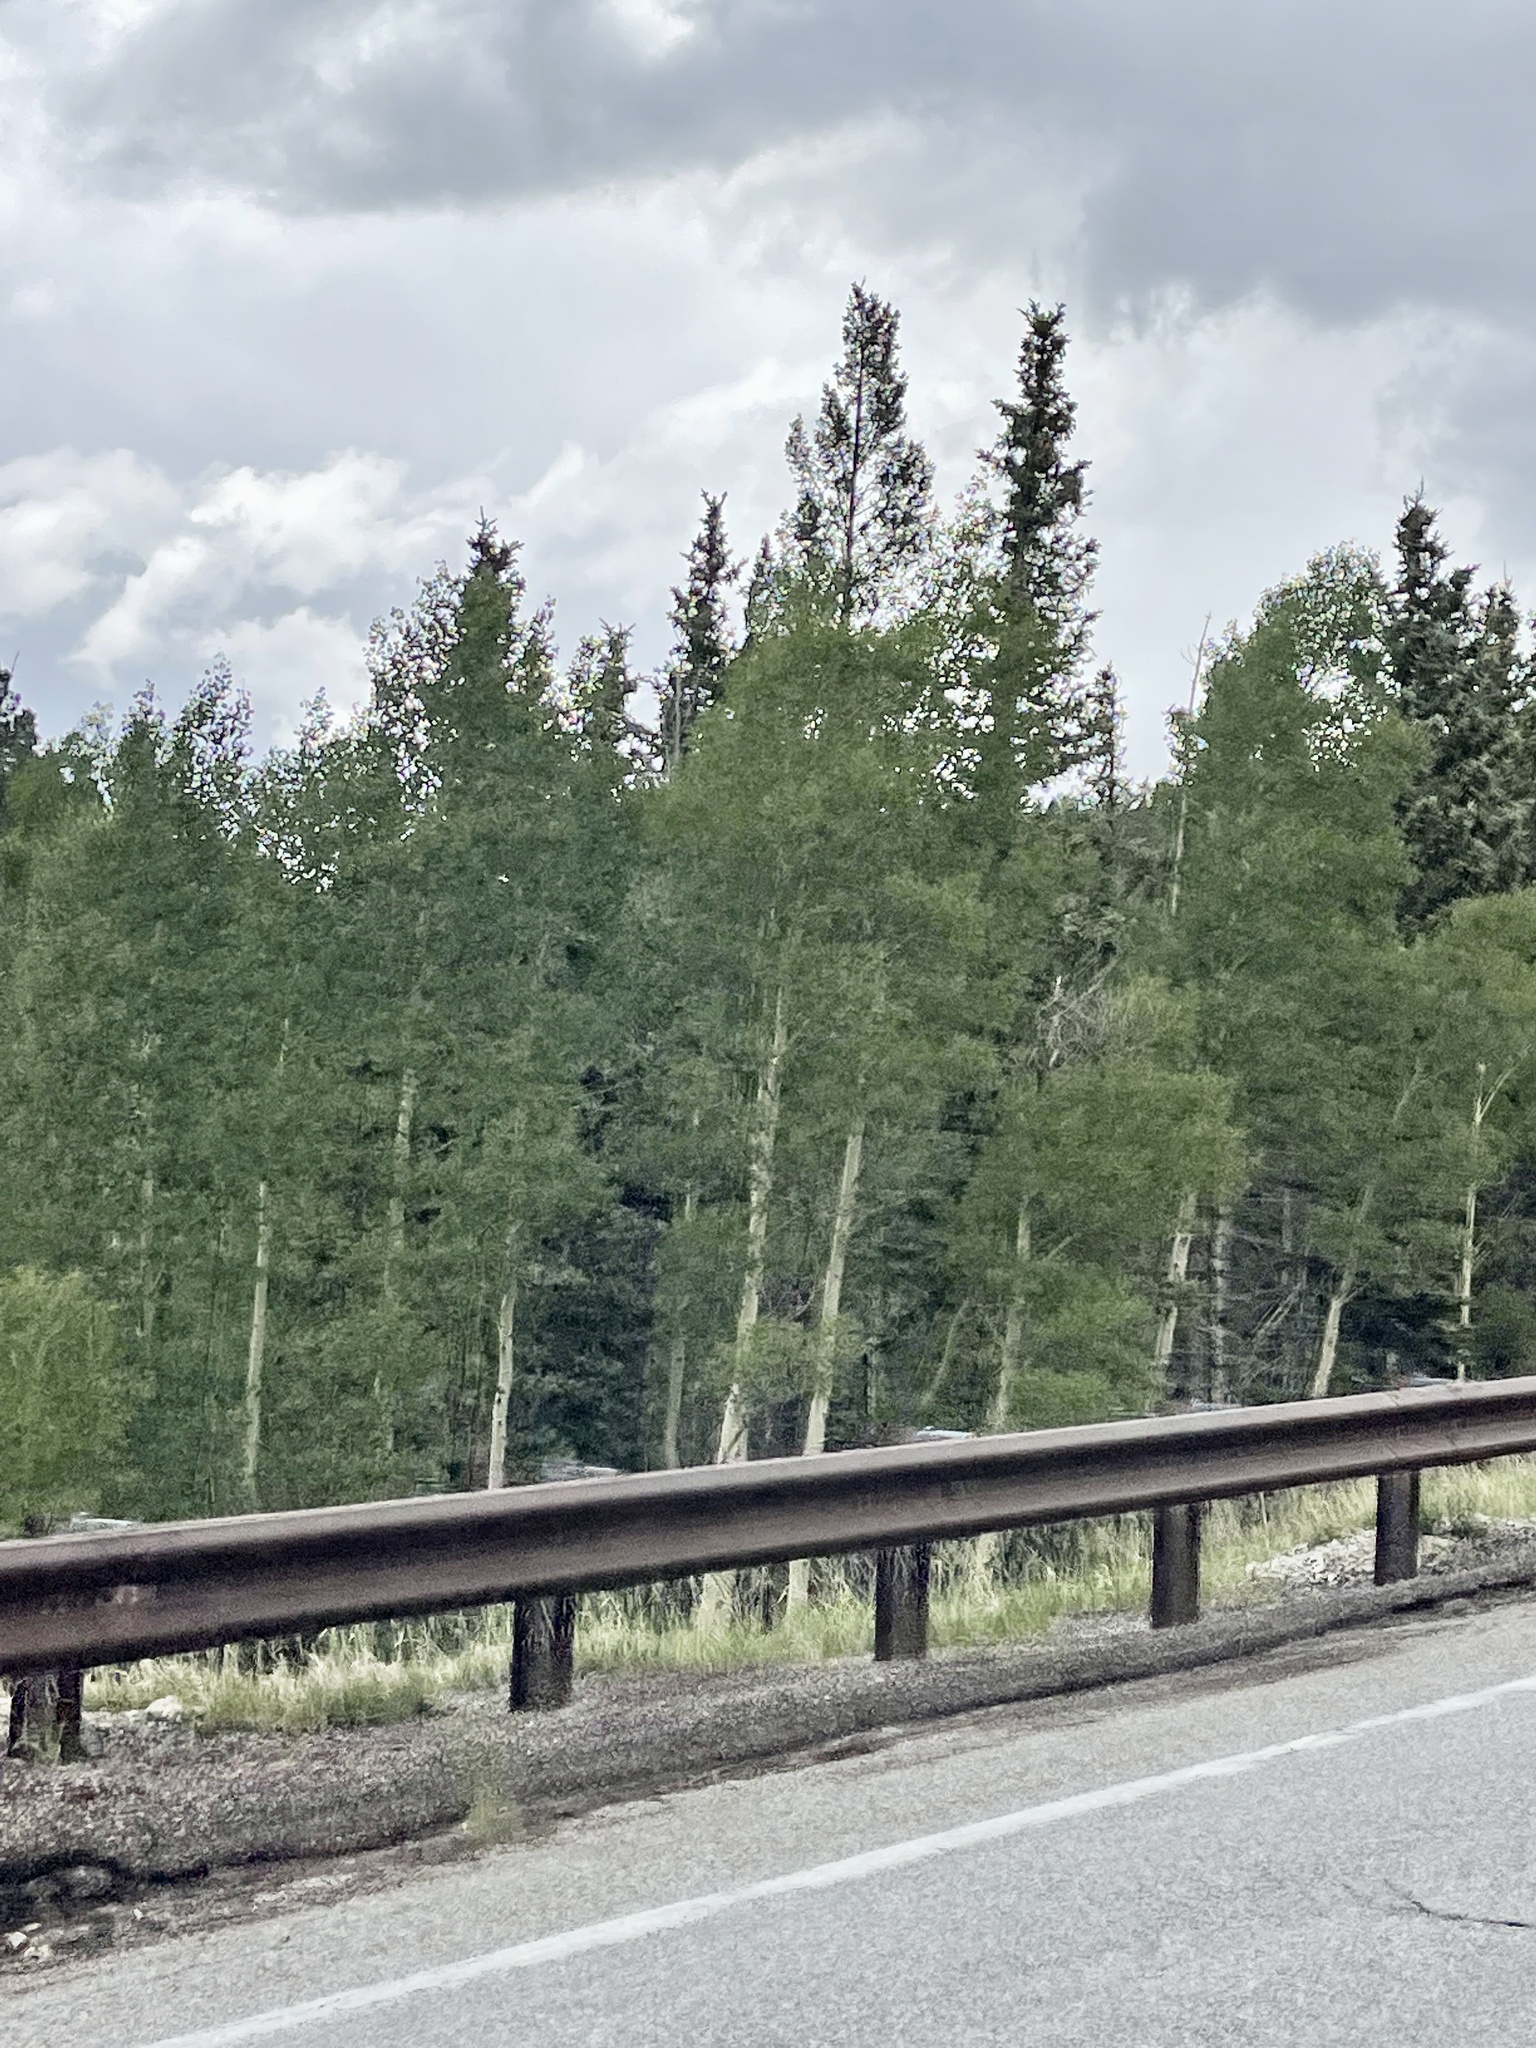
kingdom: Plantae
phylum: Tracheophyta
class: Magnoliopsida
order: Malpighiales
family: Salicaceae
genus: Populus
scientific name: Populus tremuloides
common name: Quaking aspen
